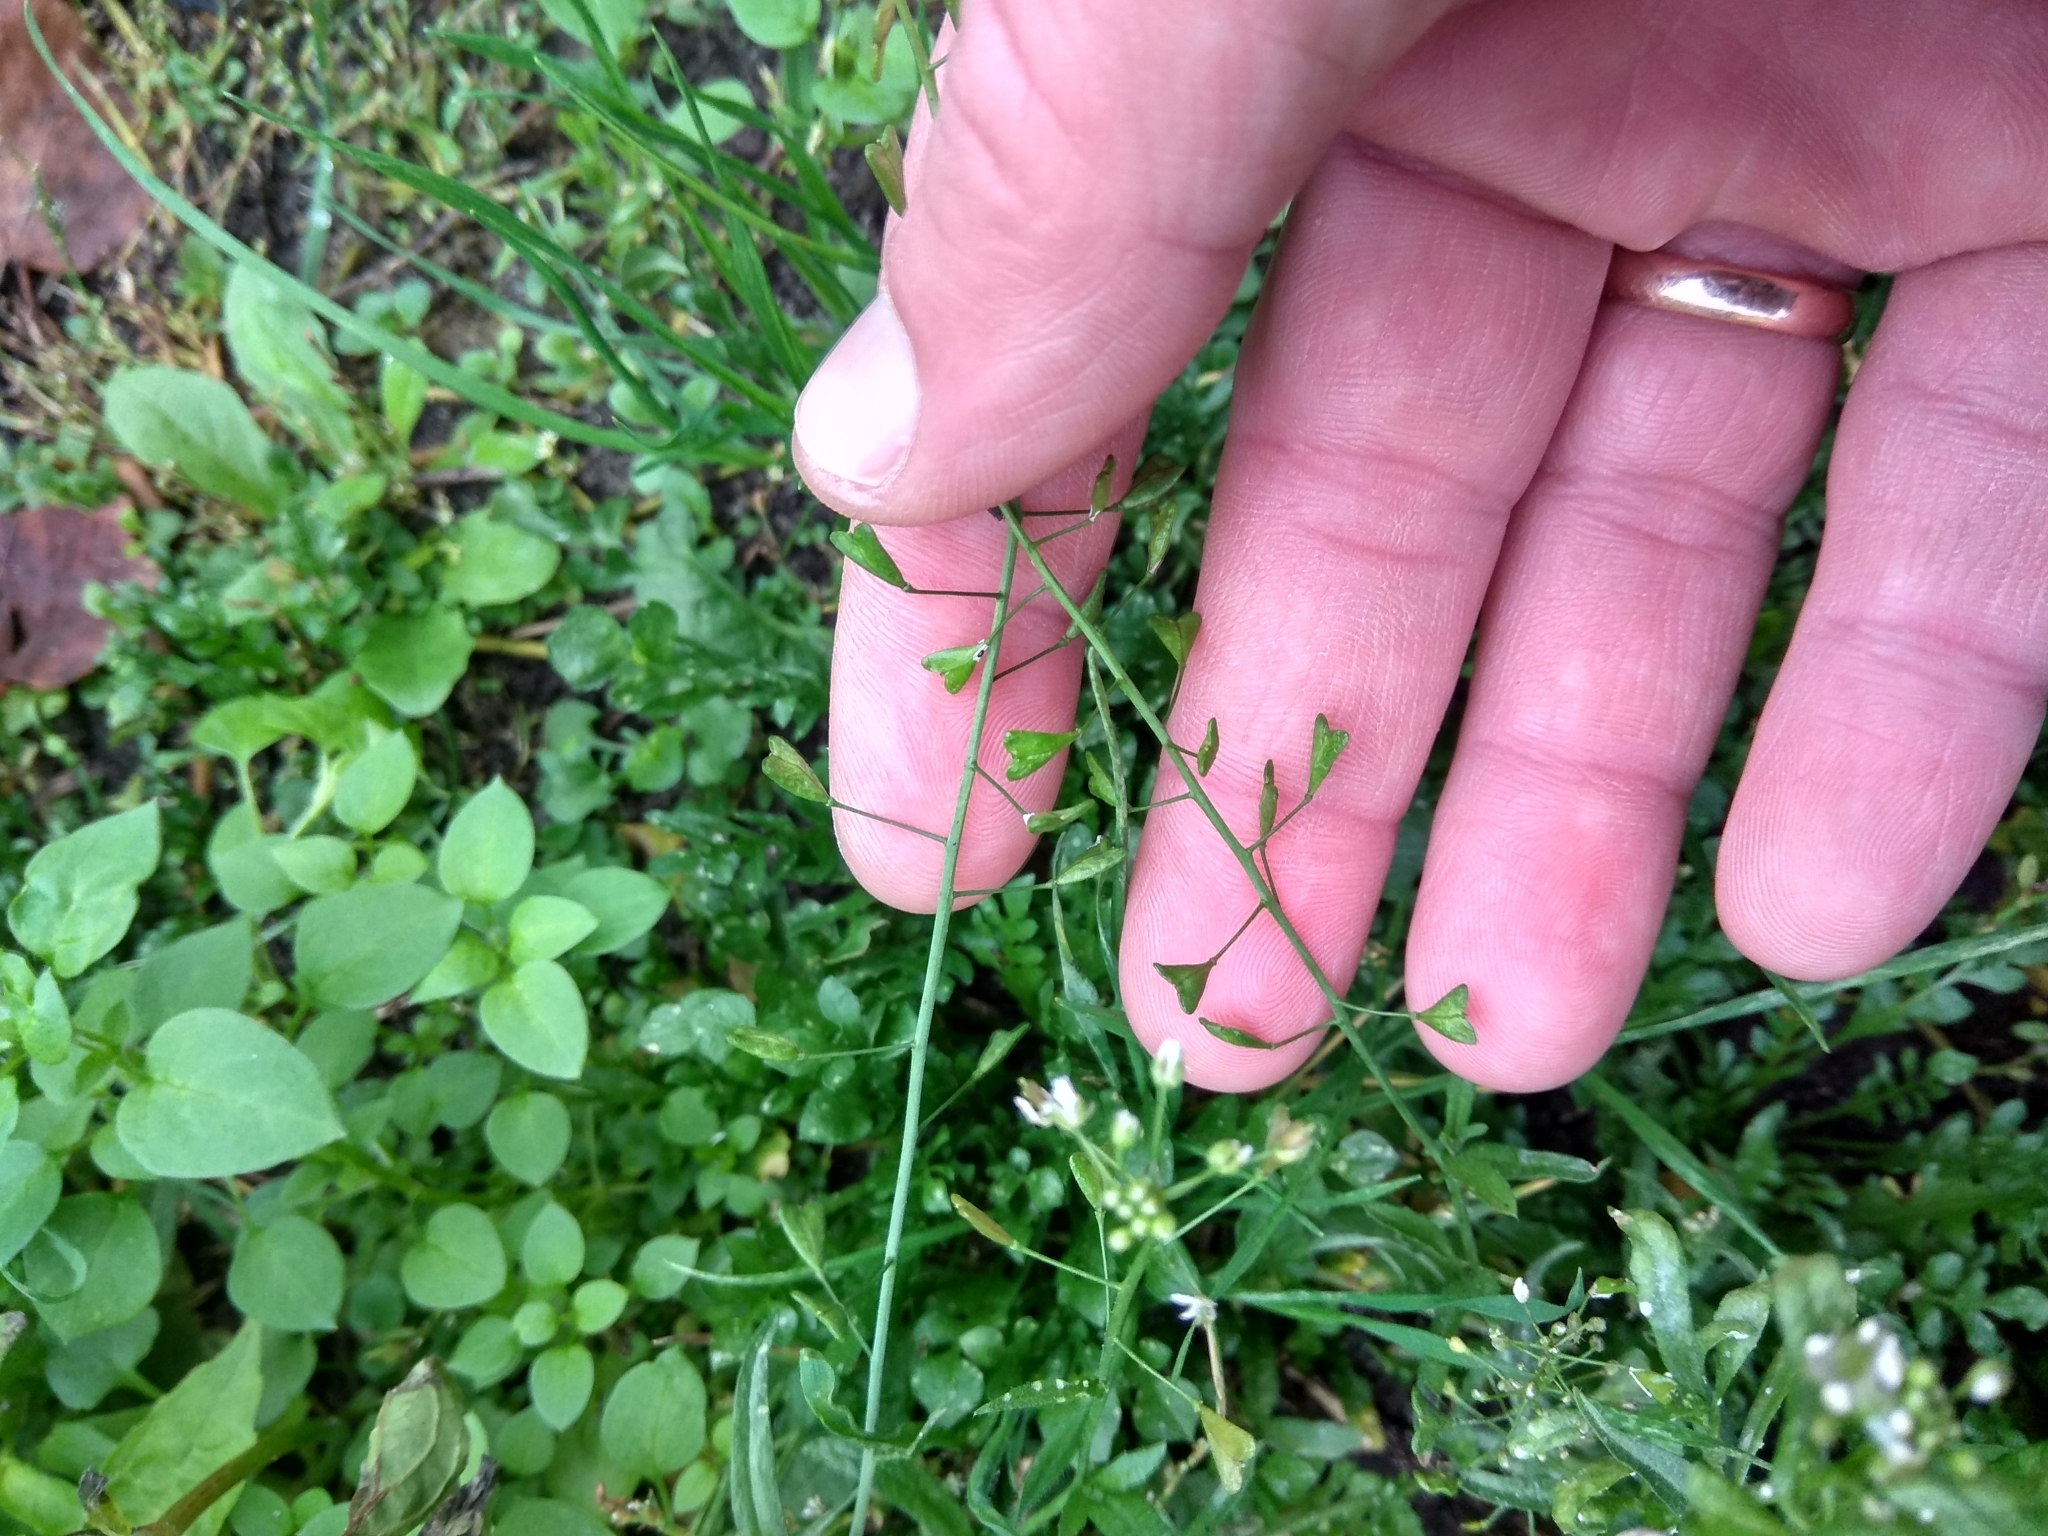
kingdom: Plantae
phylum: Tracheophyta
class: Magnoliopsida
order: Brassicales
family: Brassicaceae
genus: Capsella
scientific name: Capsella bursa-pastoris
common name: Shepherd's purse
